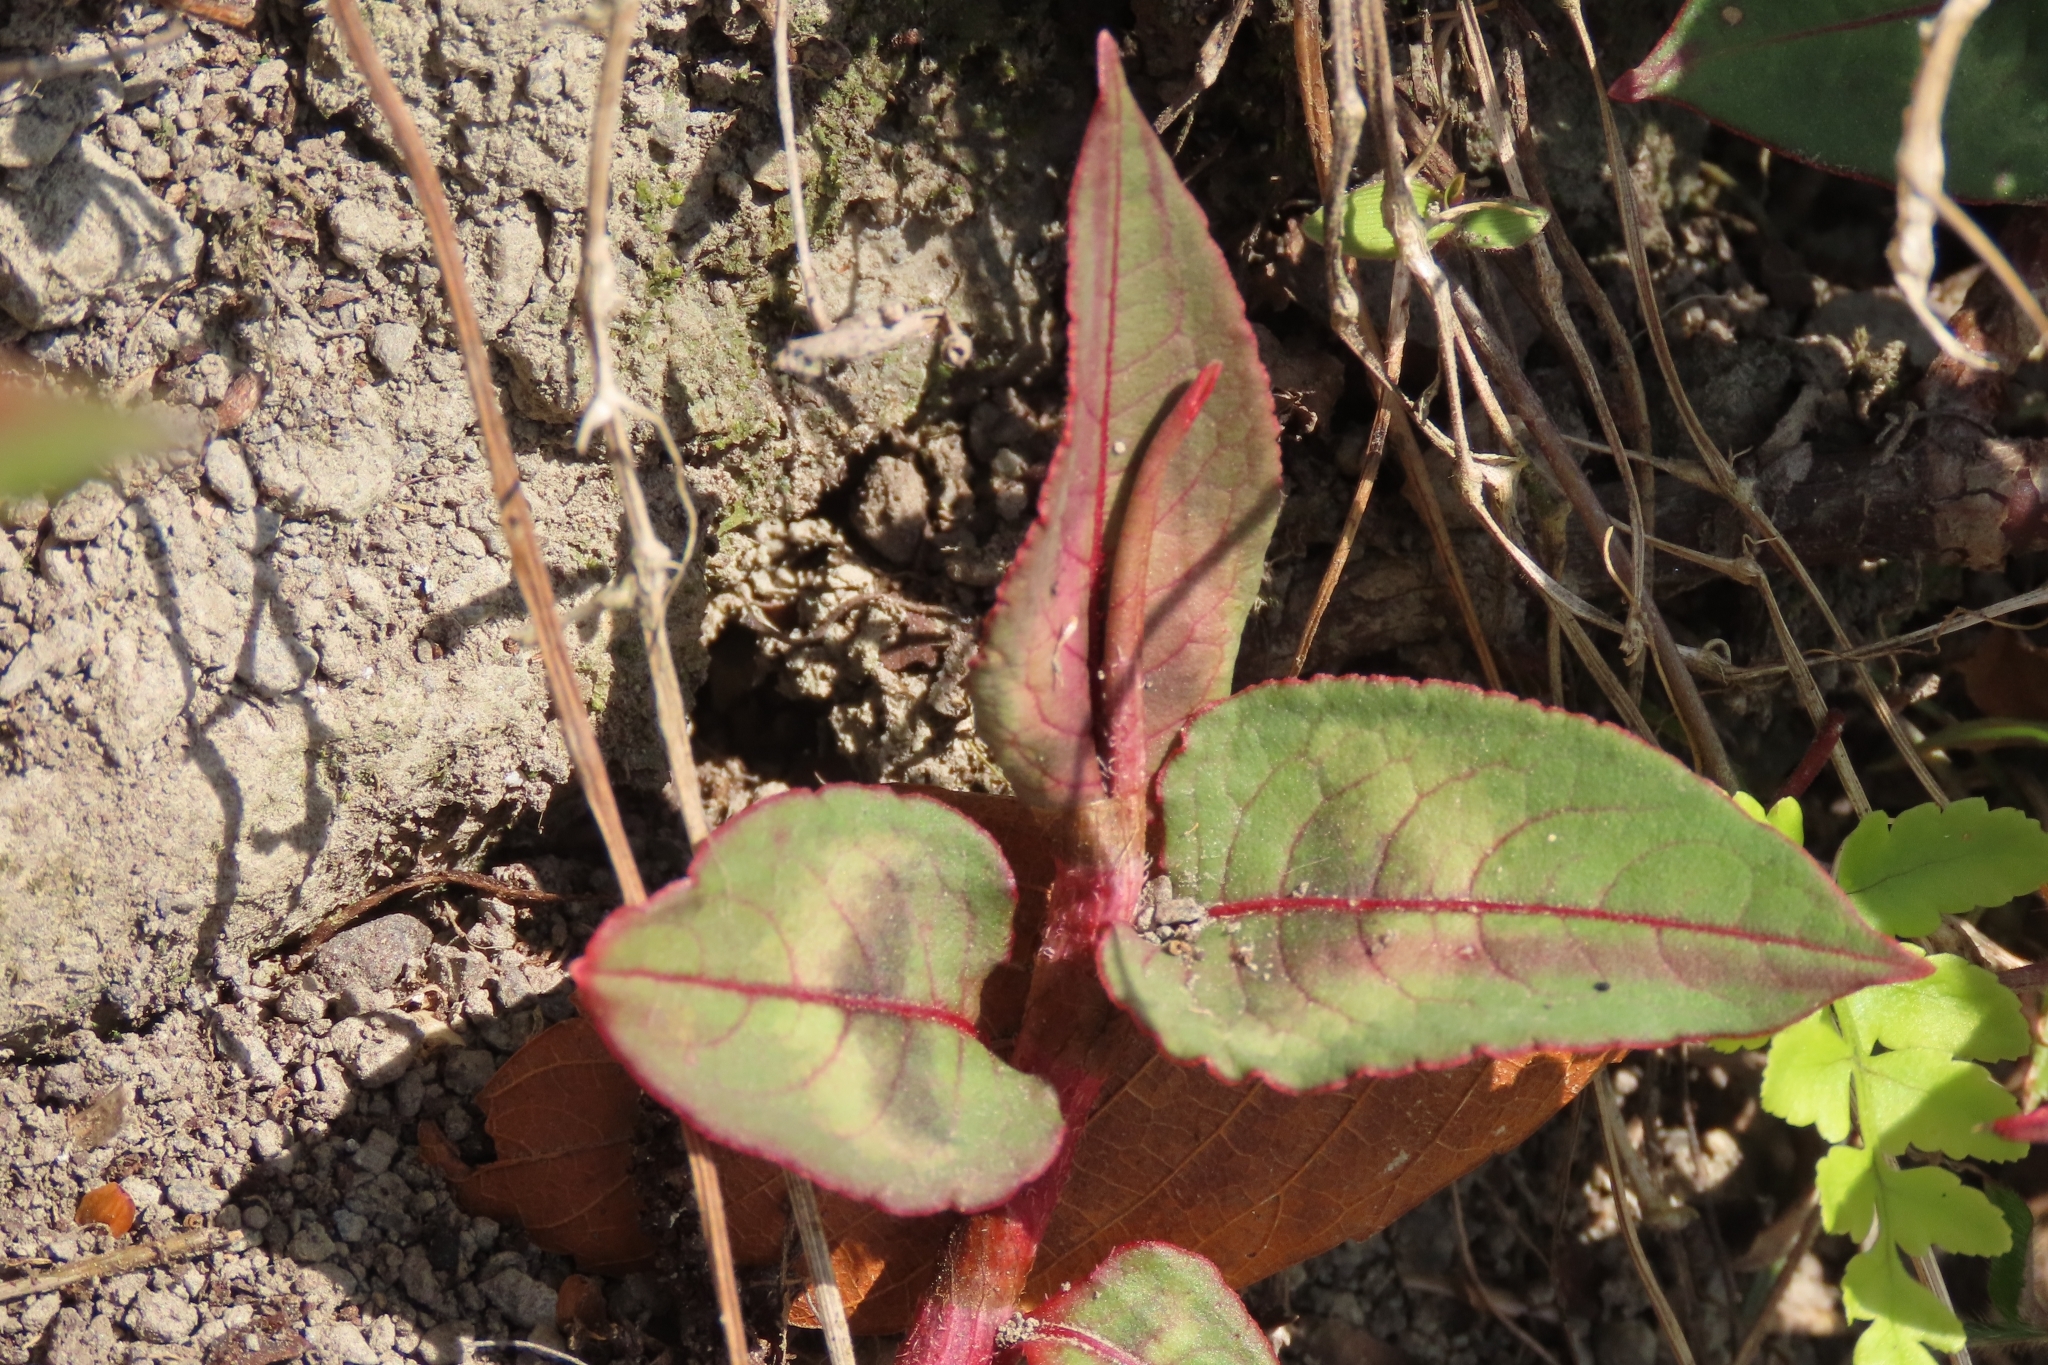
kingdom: Plantae
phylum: Tracheophyta
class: Magnoliopsida
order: Caryophyllales
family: Polygonaceae
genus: Persicaria
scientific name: Persicaria chinensis
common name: Chinese knotweed
